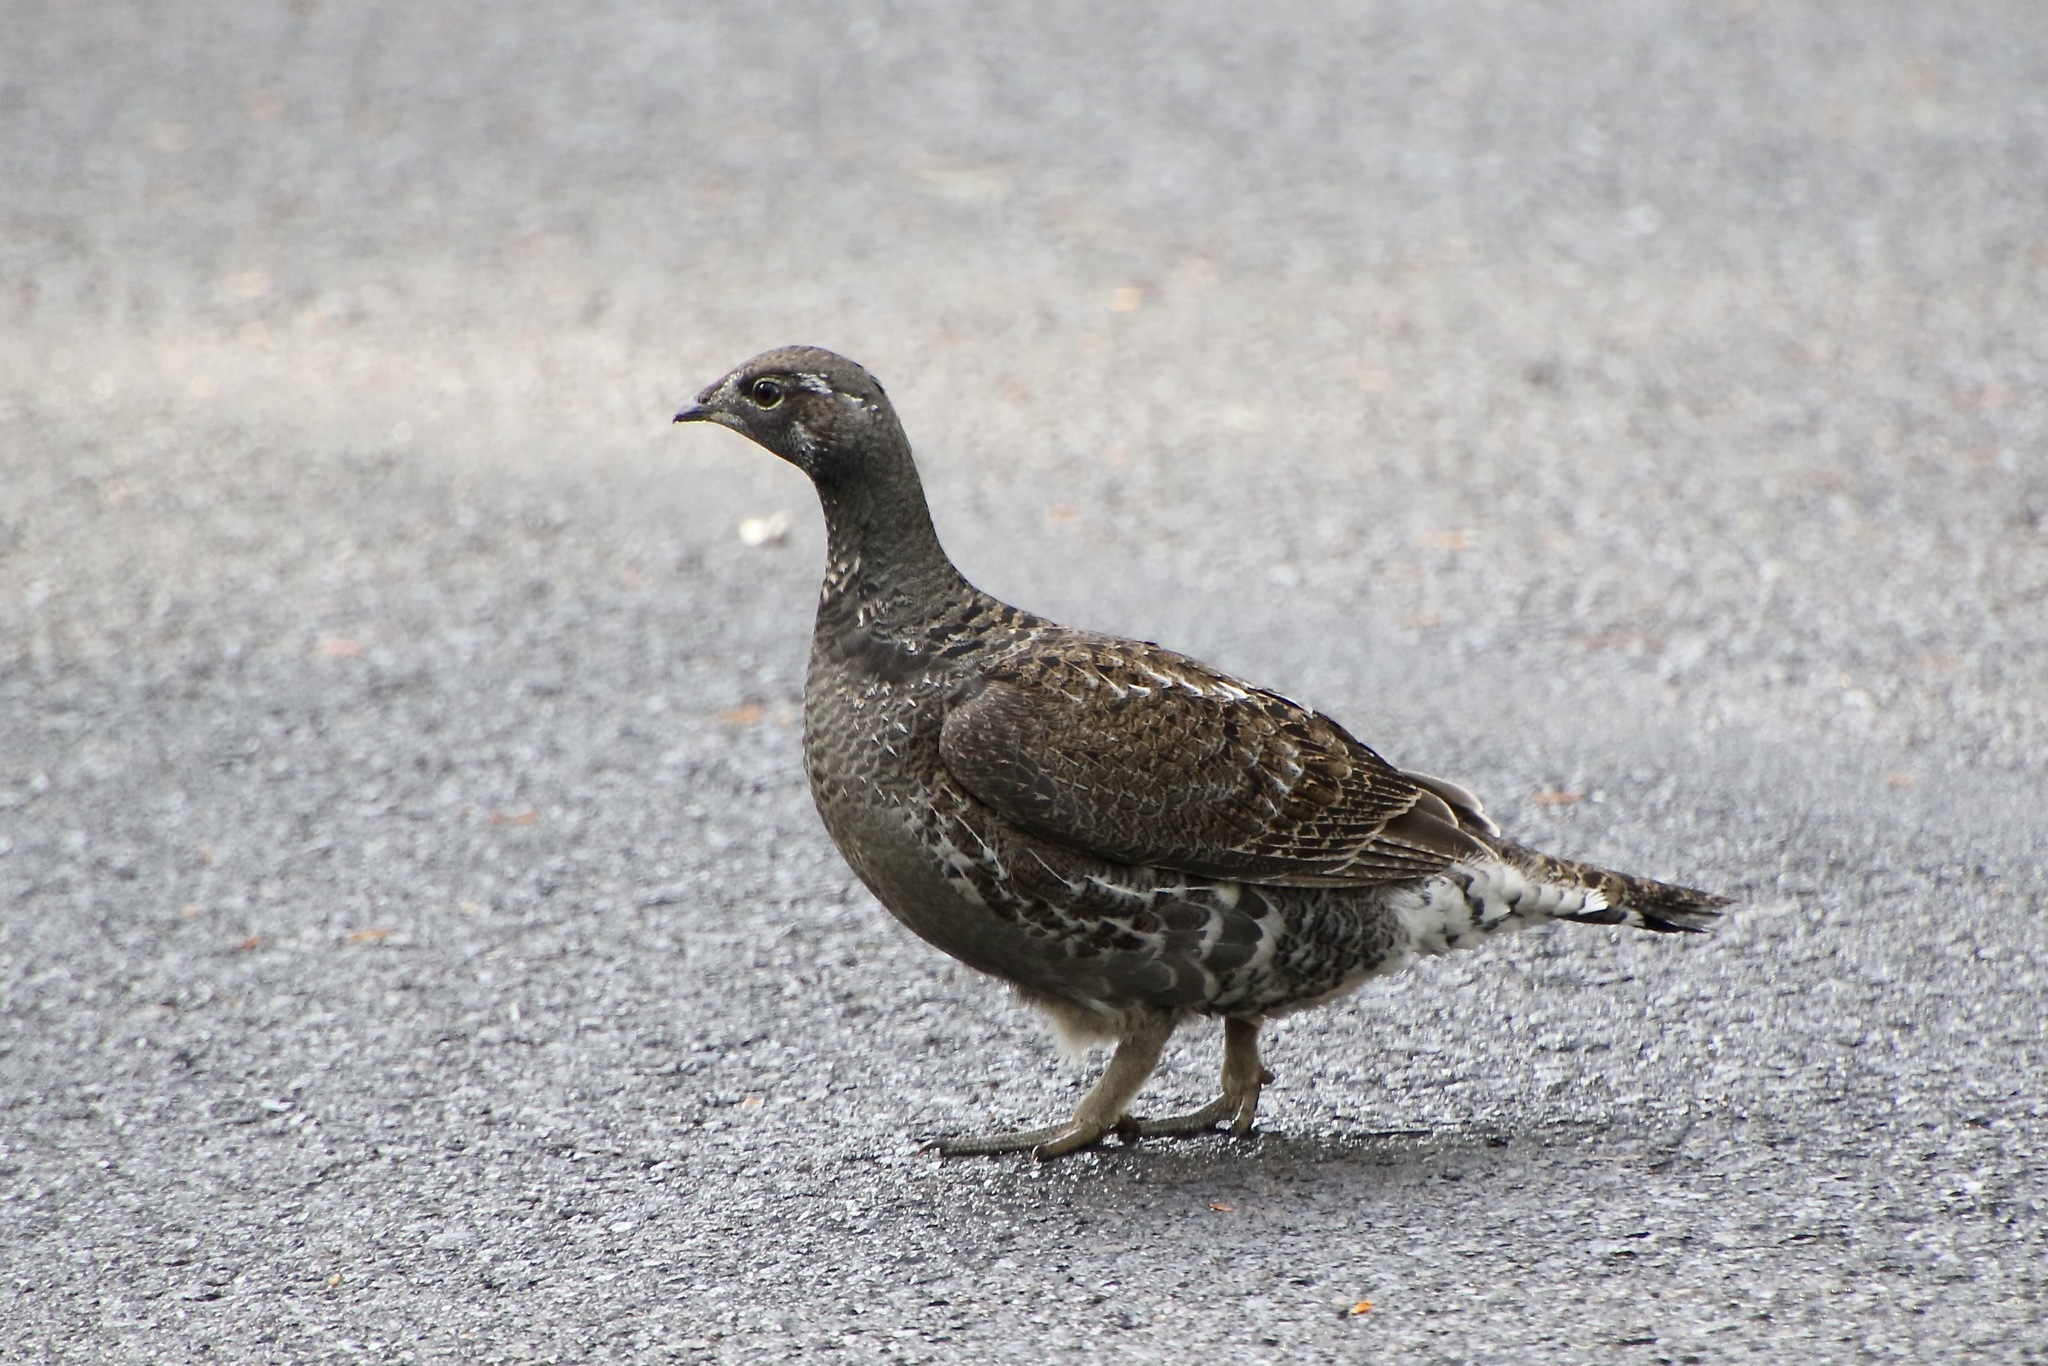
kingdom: Animalia
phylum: Chordata
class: Aves
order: Galliformes
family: Phasianidae
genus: Dendragapus
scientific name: Dendragapus fuliginosus
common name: Sooty grouse
